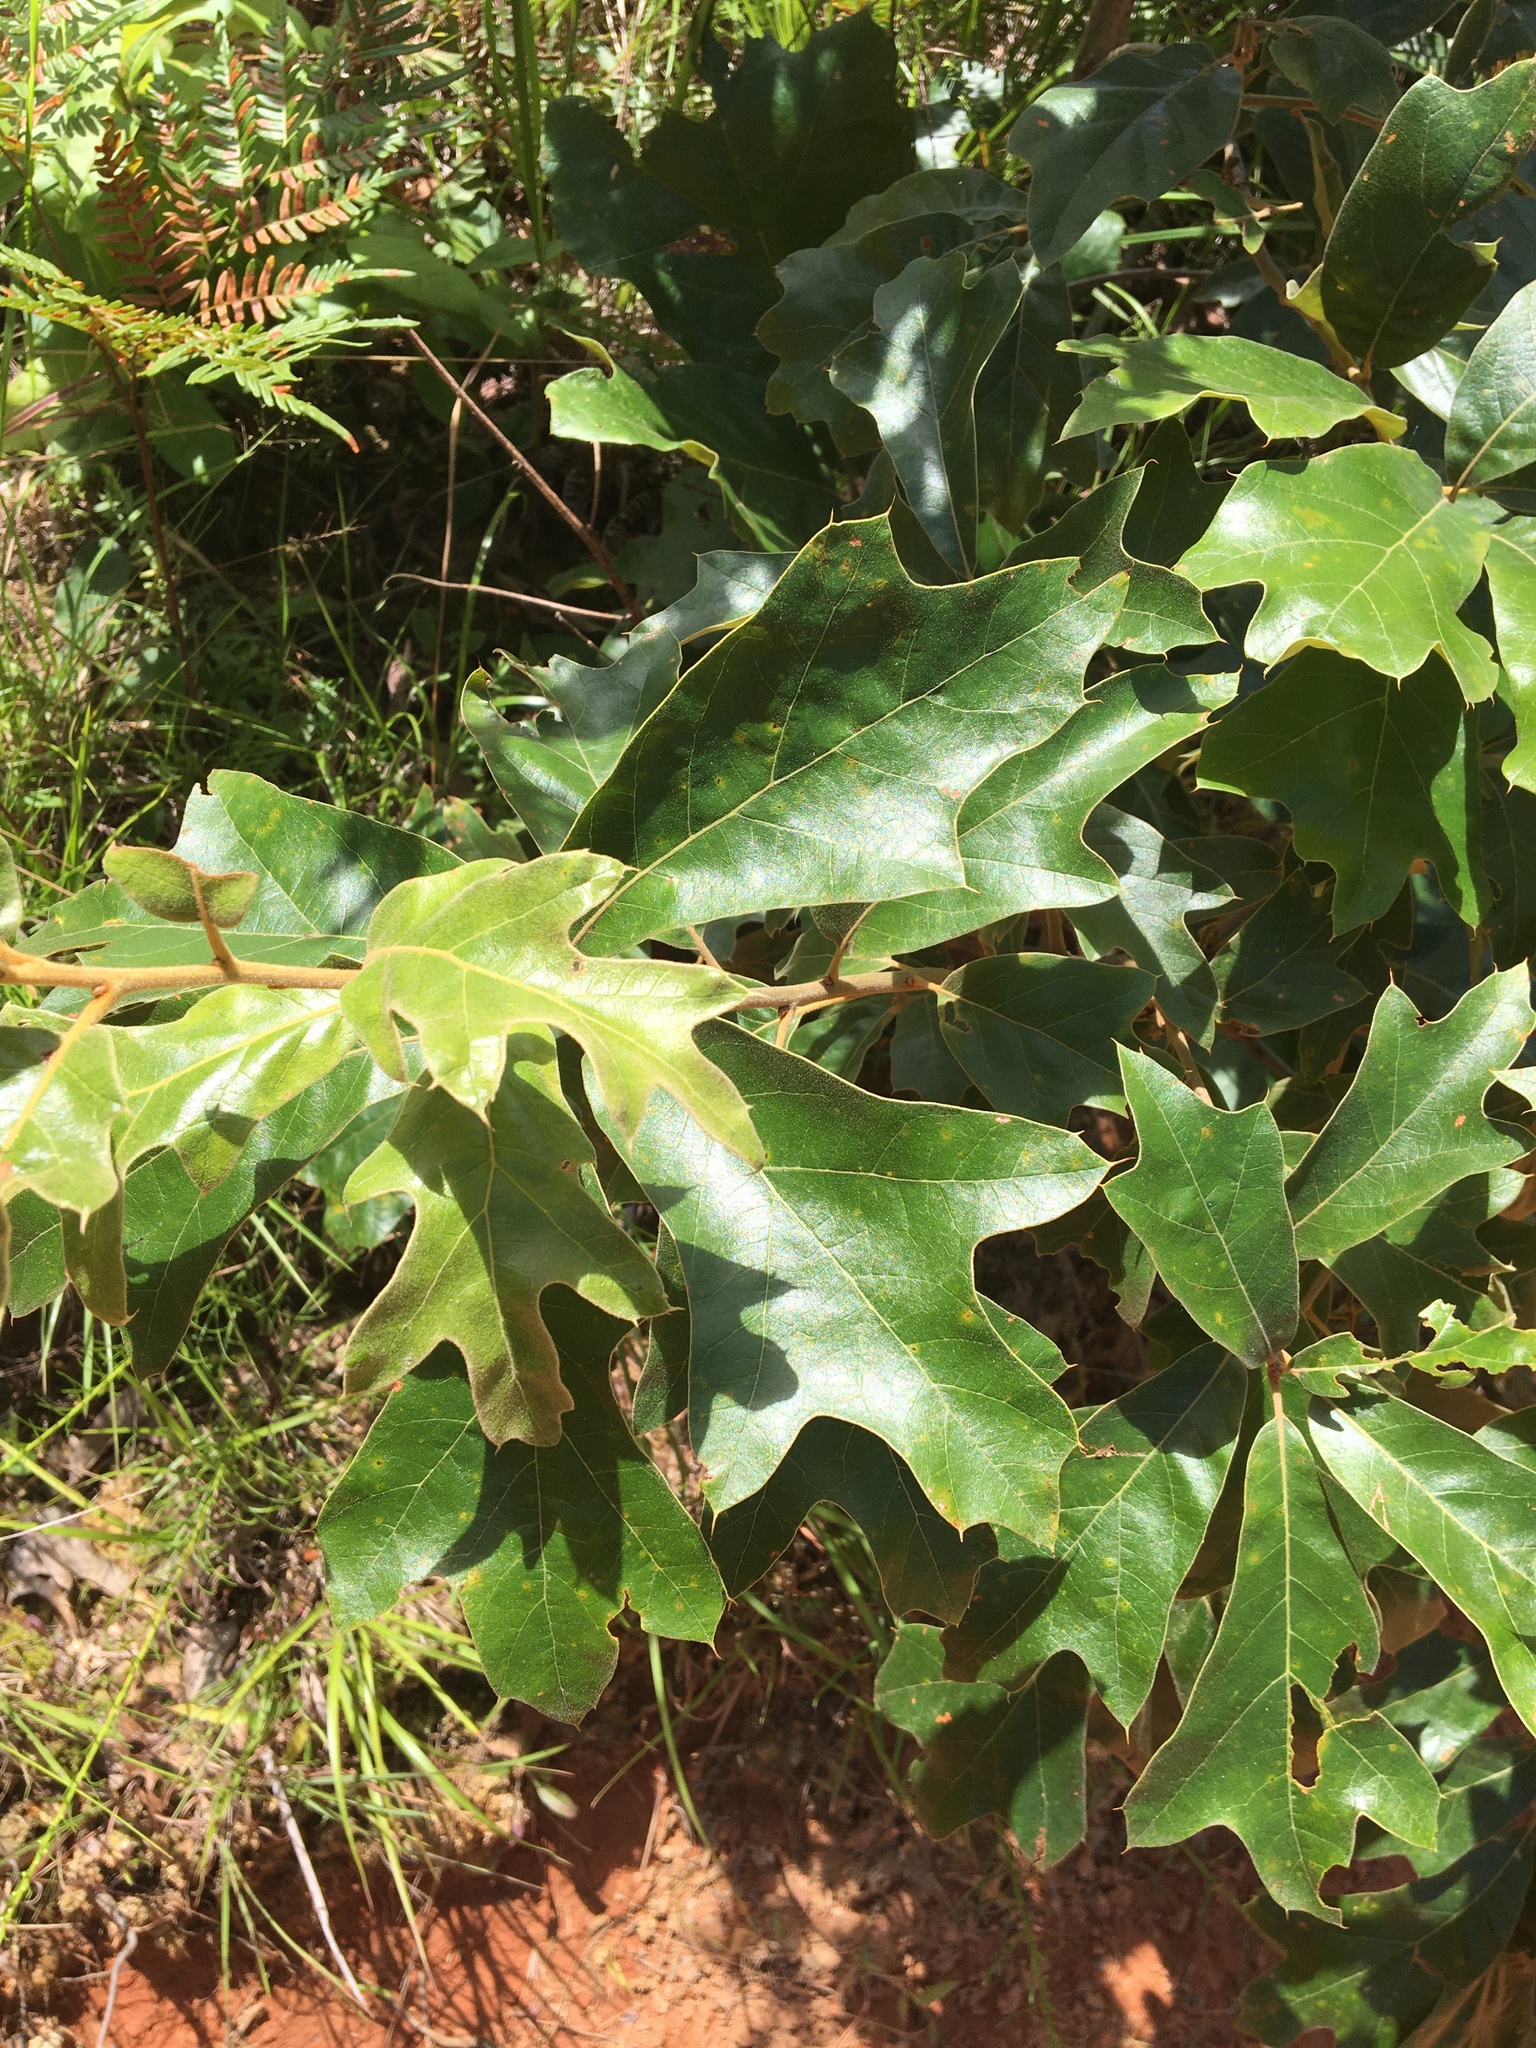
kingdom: Plantae
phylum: Tracheophyta
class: Magnoliopsida
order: Fagales
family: Fagaceae
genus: Quercus
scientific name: Quercus falcata
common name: Southern red oak
